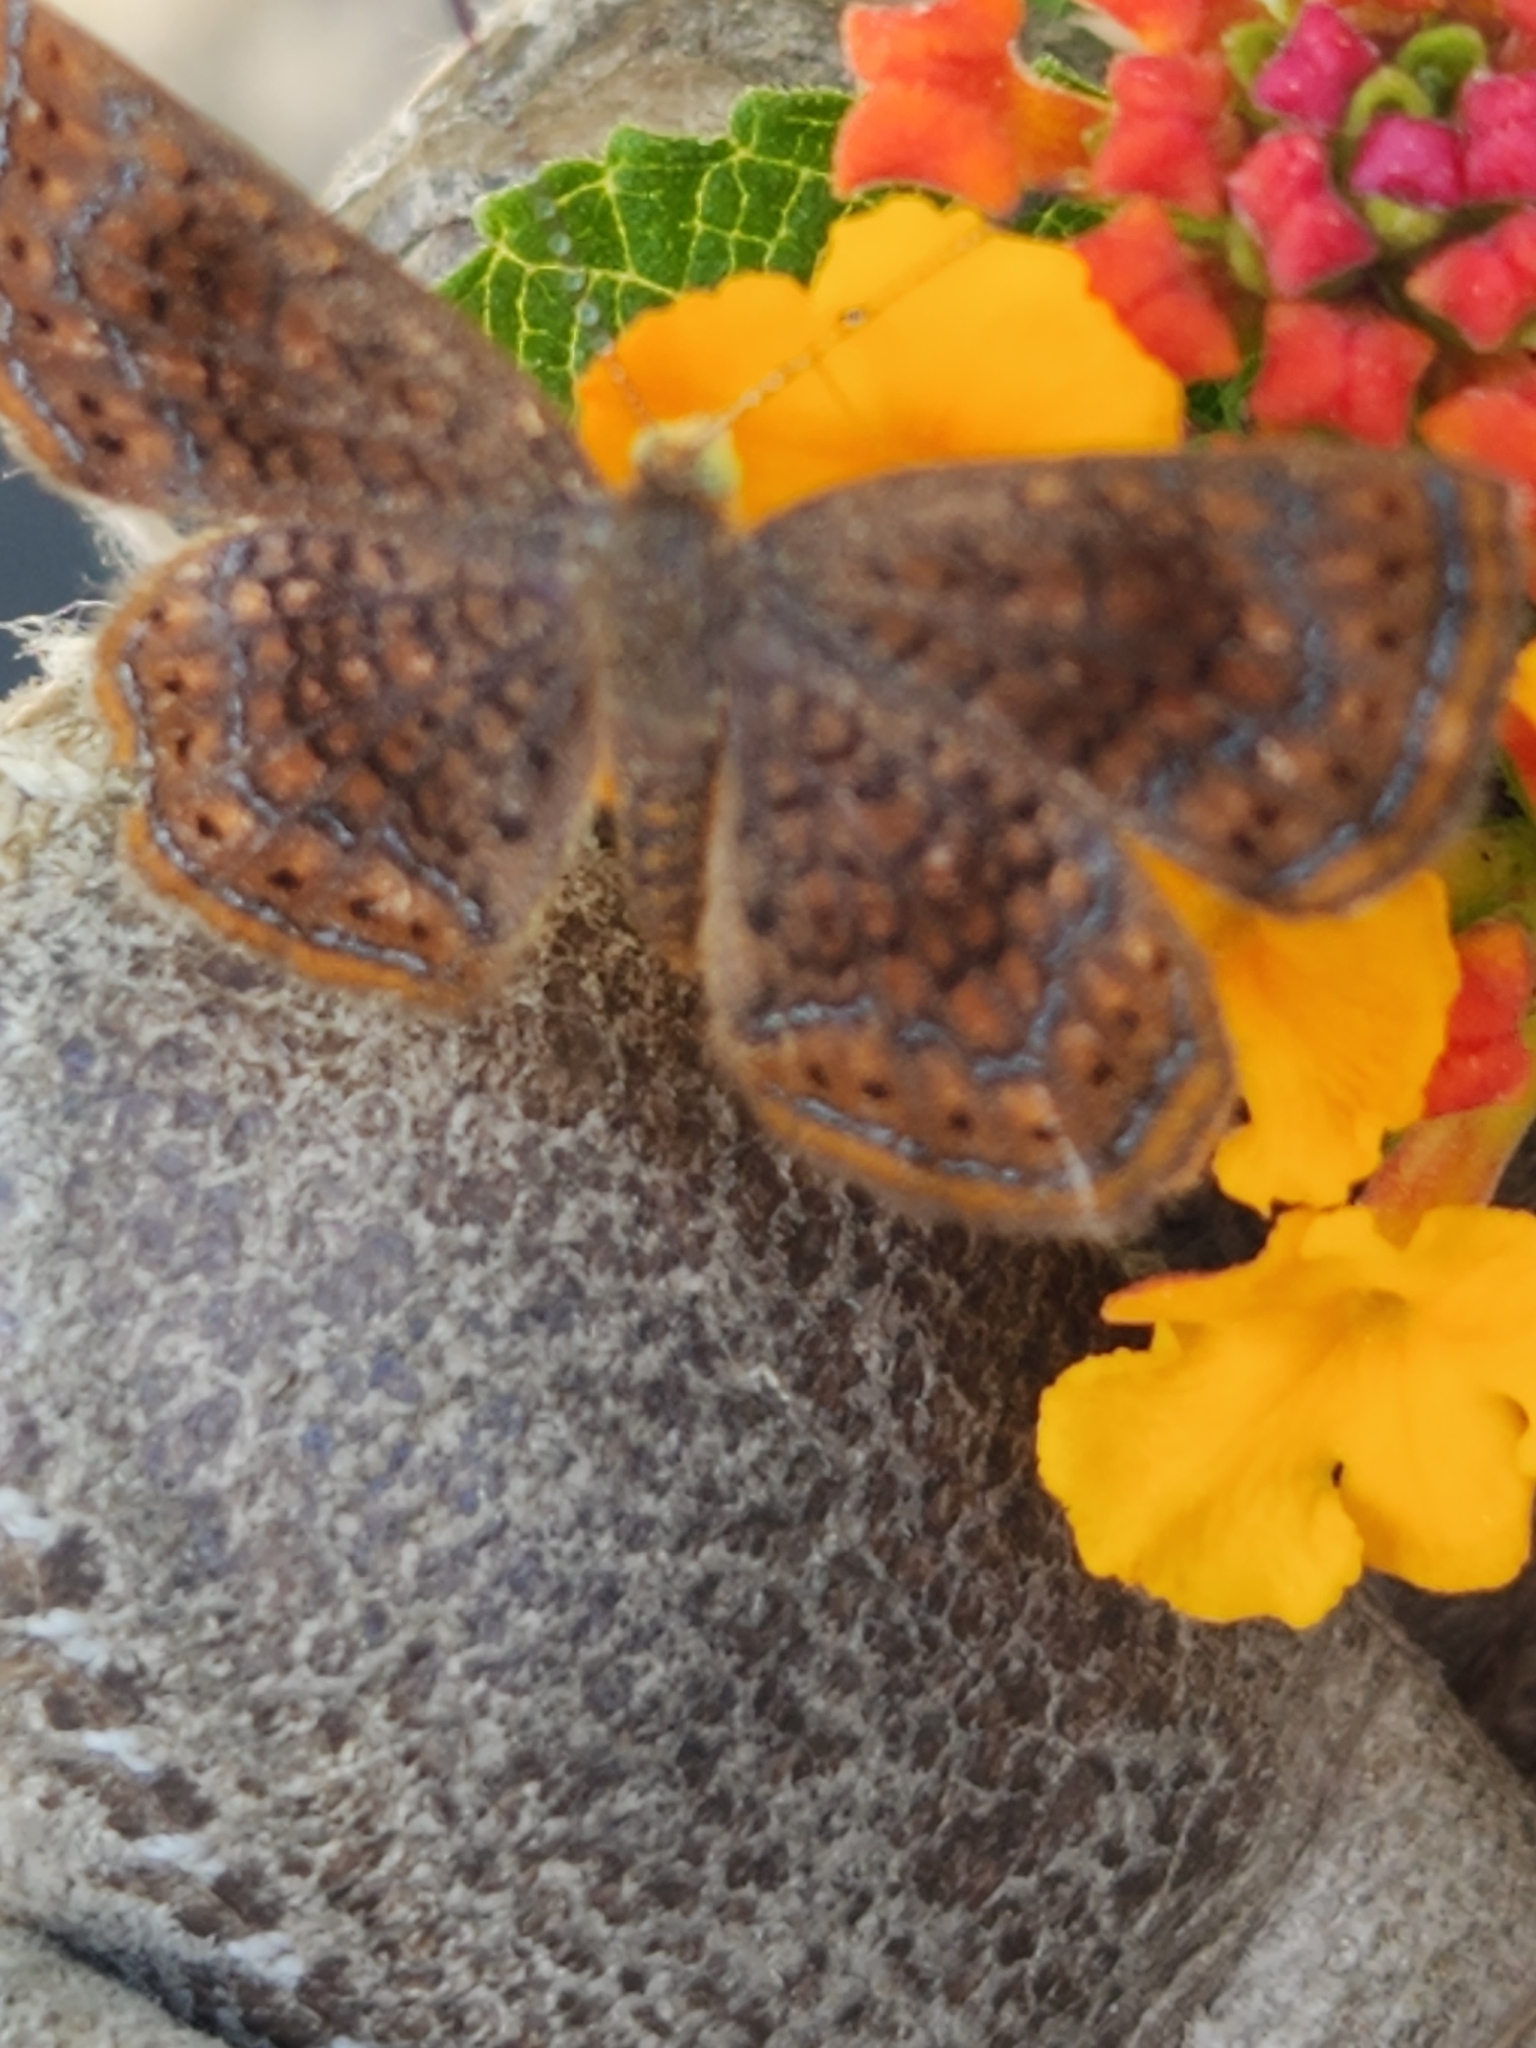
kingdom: Animalia
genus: Calephelis
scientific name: Calephelis perditalis
